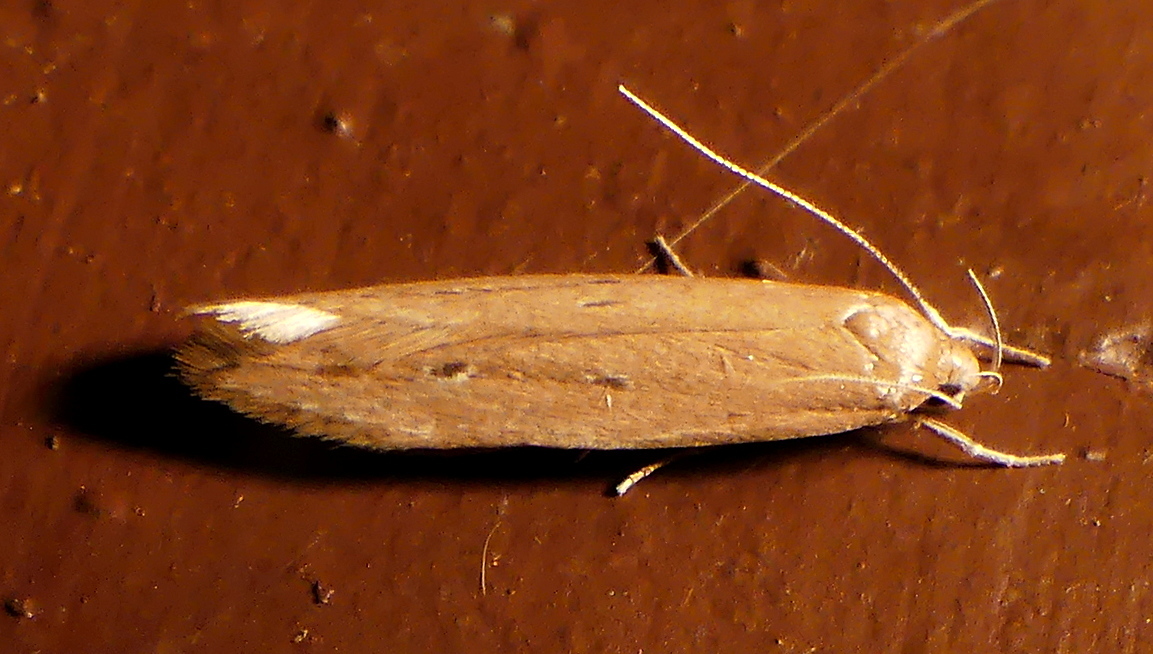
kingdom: Animalia
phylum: Arthropoda
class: Insecta
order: Lepidoptera
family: Cosmopterigidae
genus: Limnaecia
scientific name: Limnaecia phragmitella
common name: Bulrush cosmet
